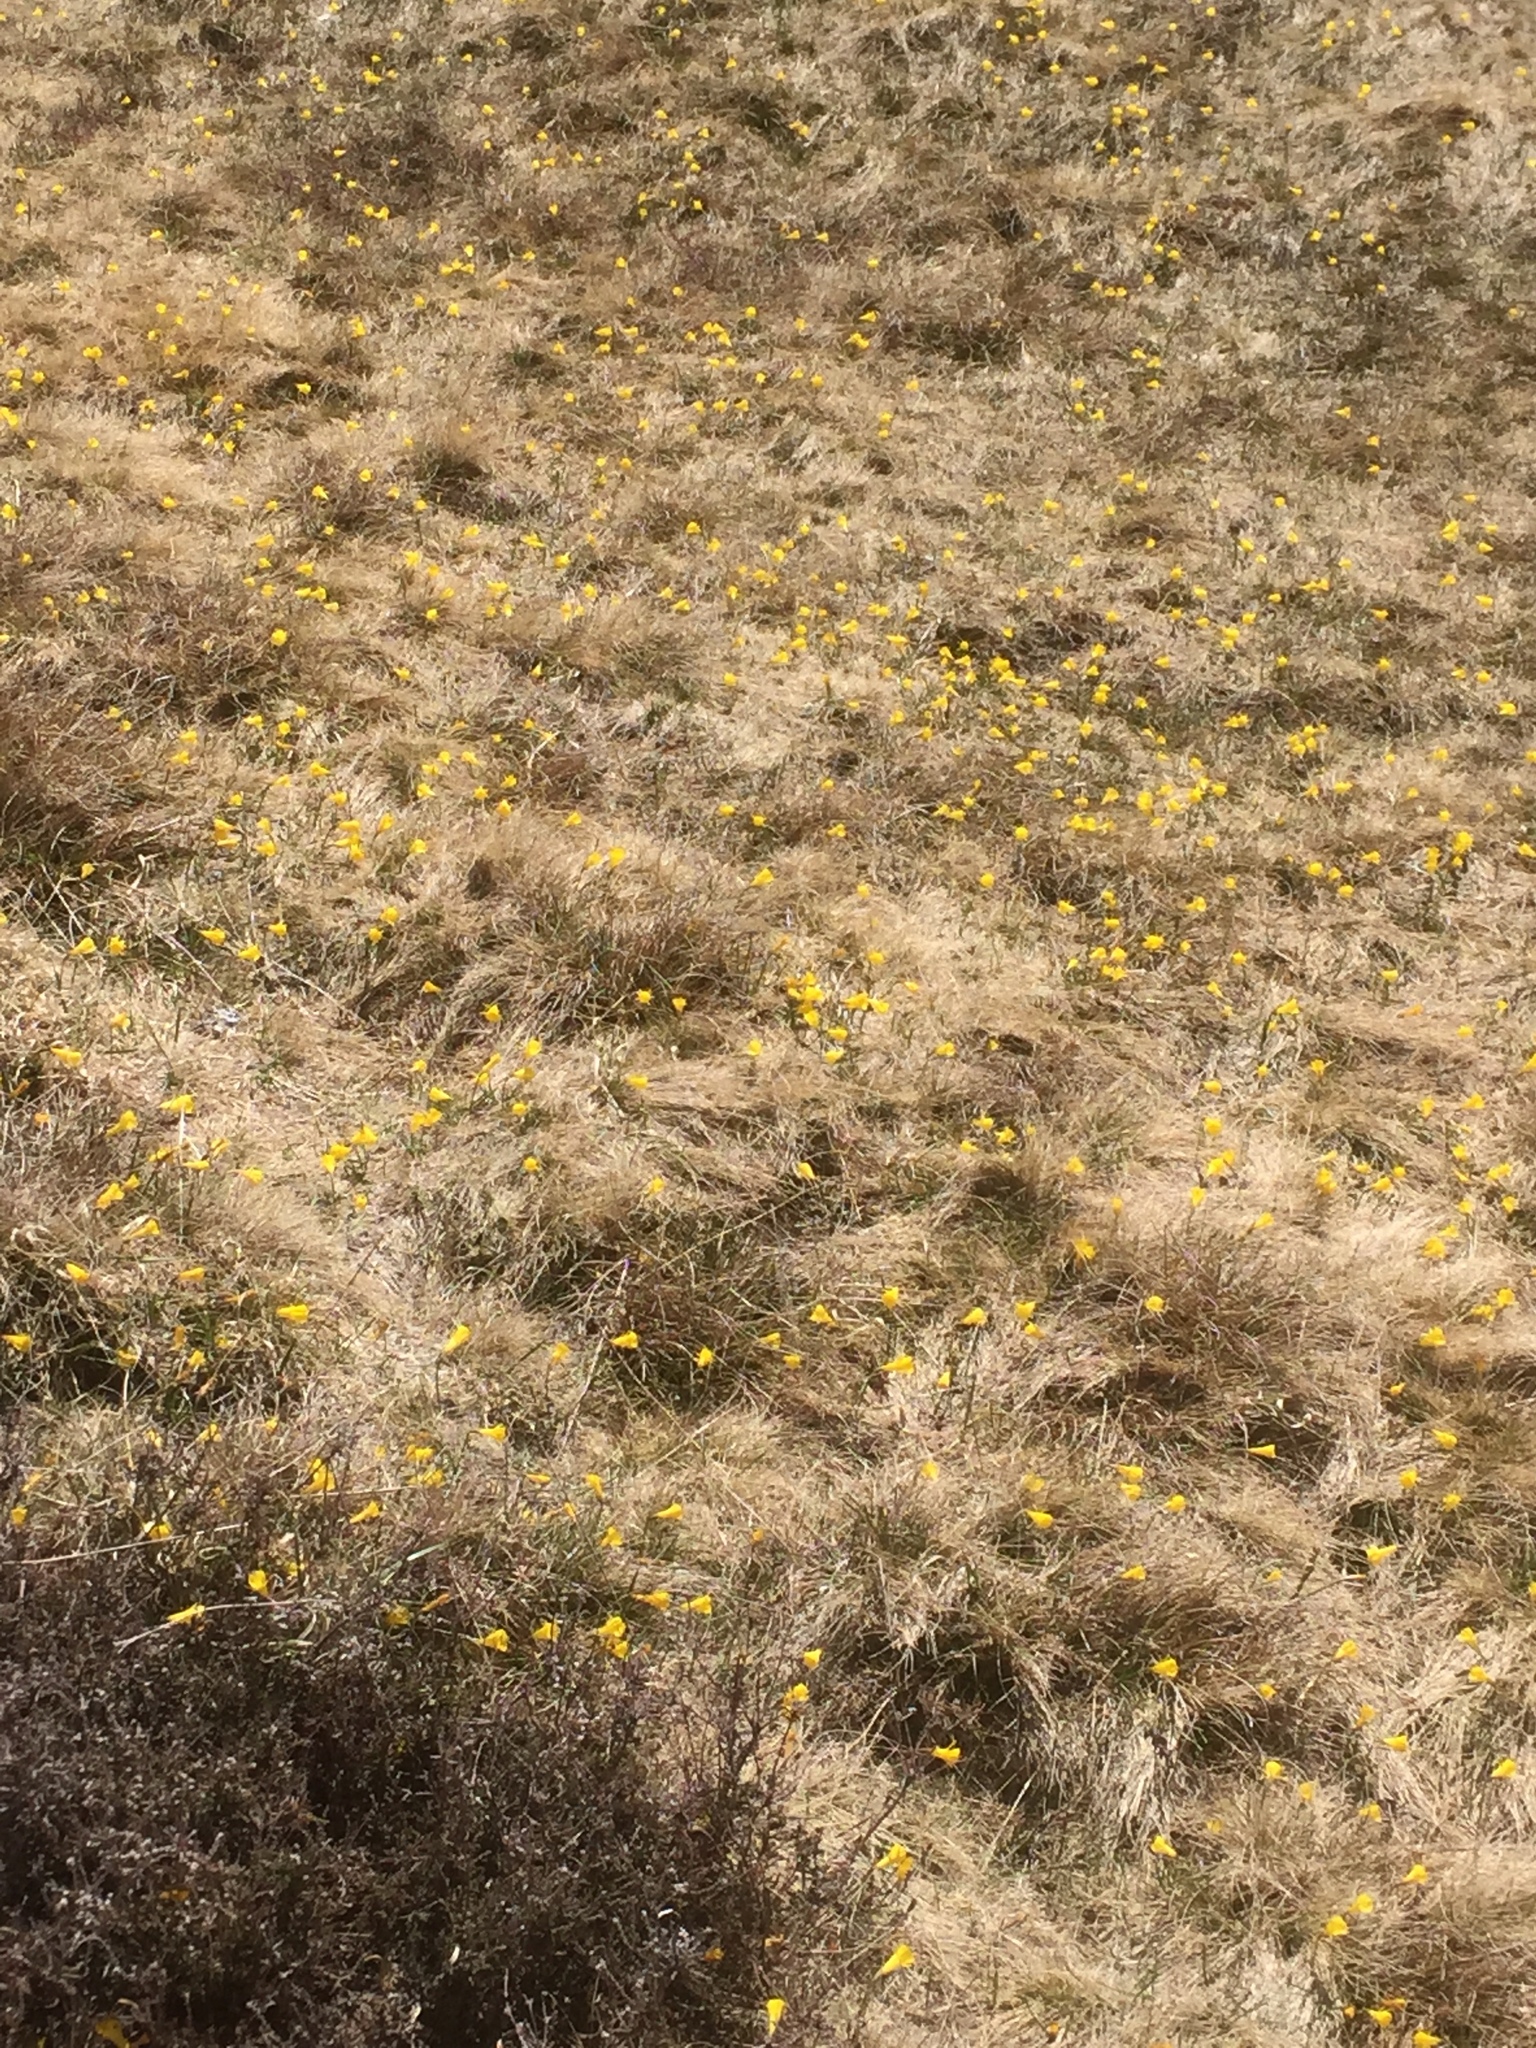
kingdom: Plantae
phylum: Tracheophyta
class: Liliopsida
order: Asparagales
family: Amaryllidaceae
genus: Narcissus
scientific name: Narcissus bulbocodium
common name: Hoop-petticoat daffodil
